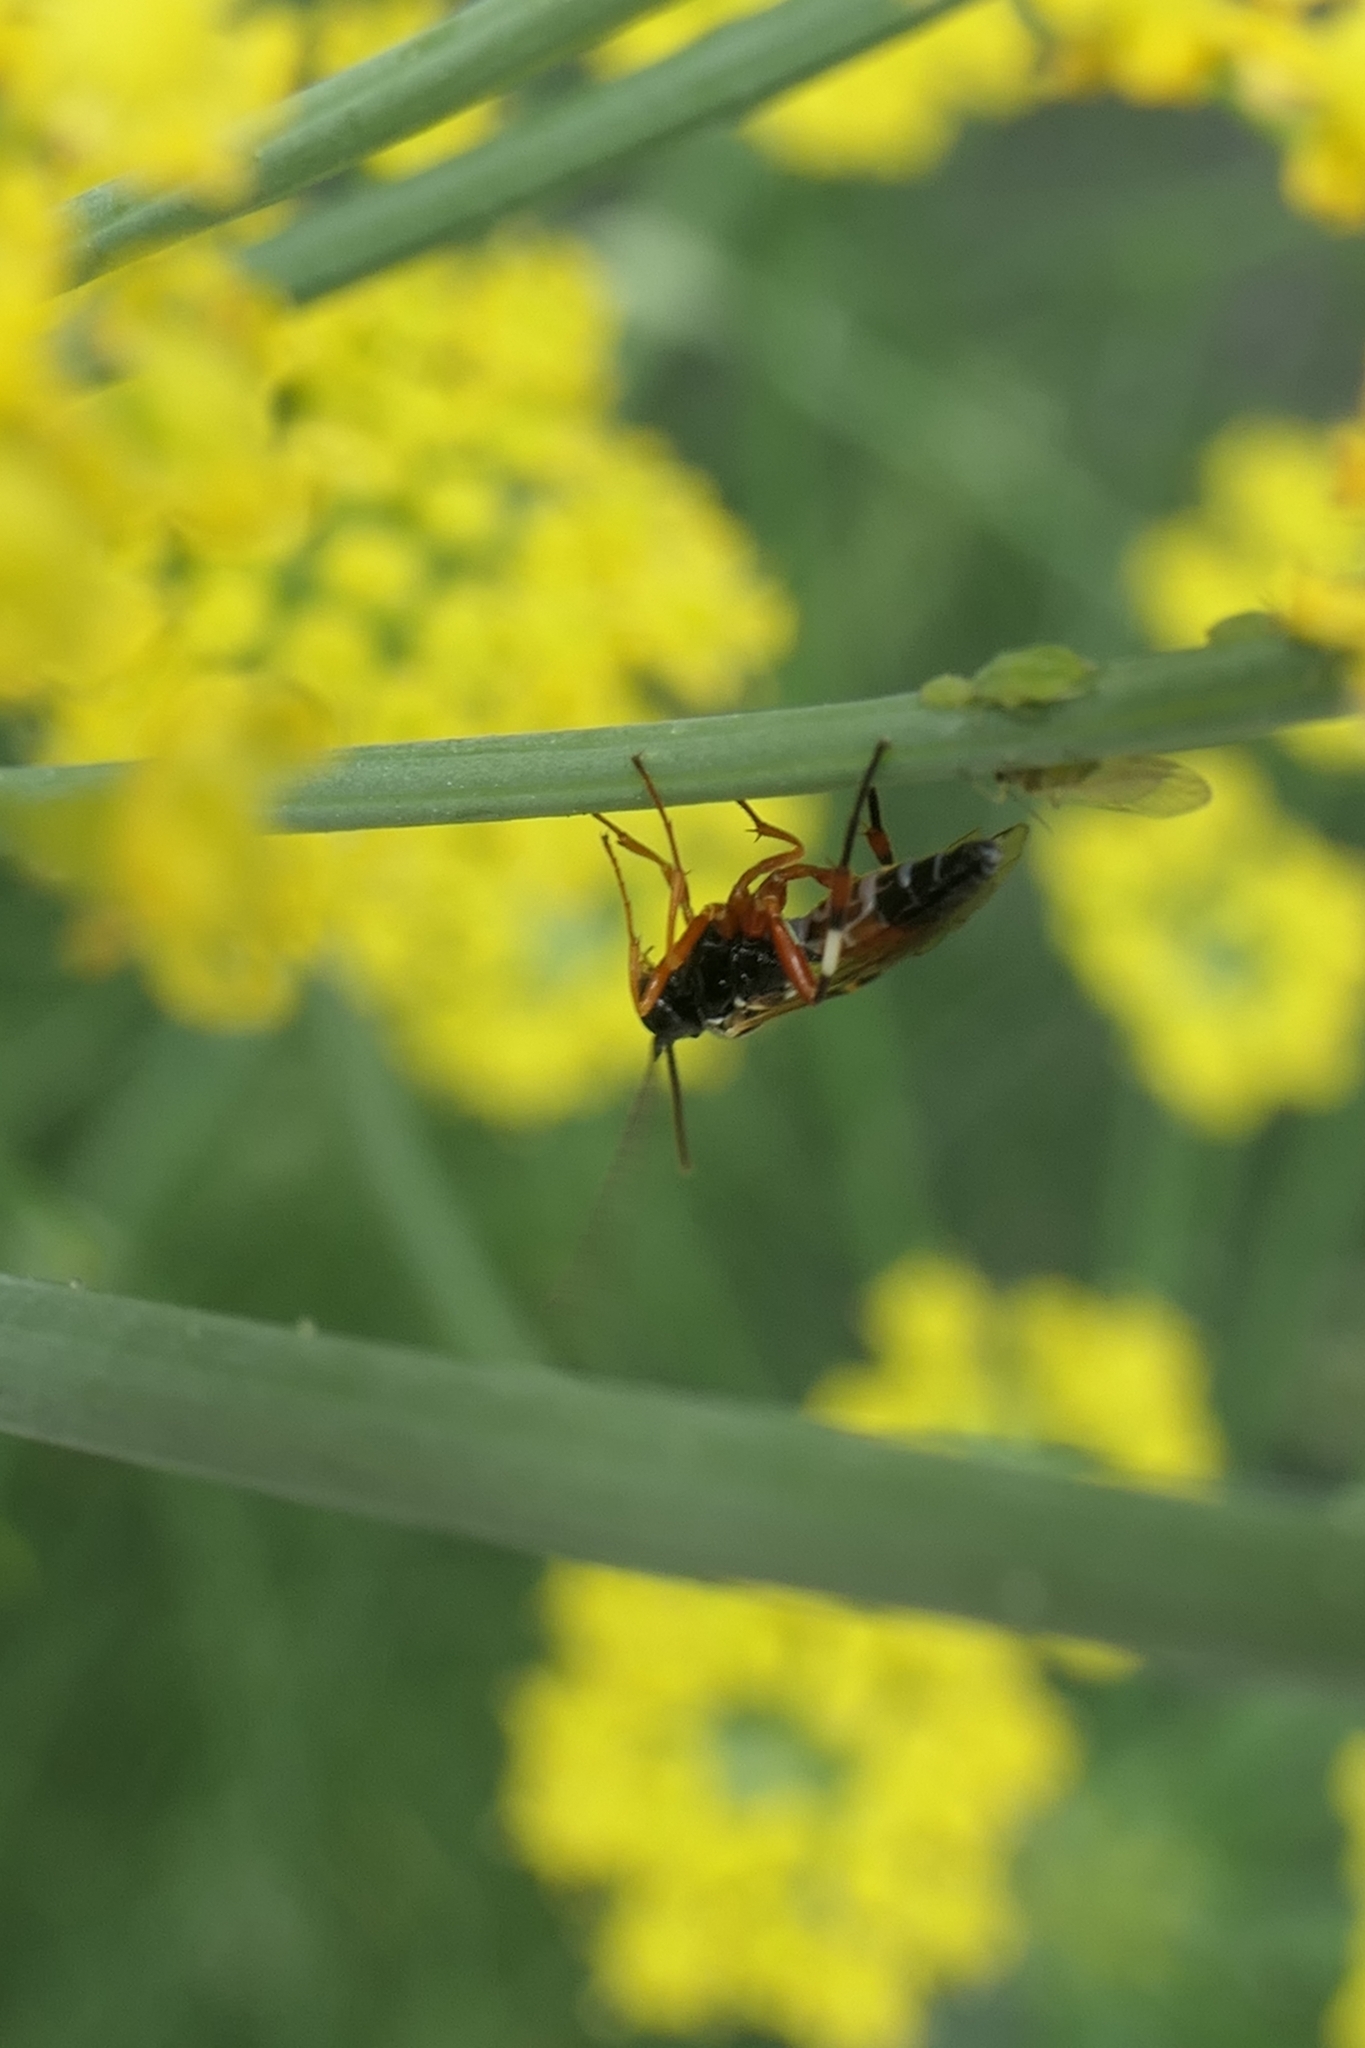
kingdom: Animalia
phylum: Arthropoda
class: Insecta
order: Hymenoptera
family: Ichneumonidae
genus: Diplazon
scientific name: Diplazon laetatorius
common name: Parasitoid wasp
